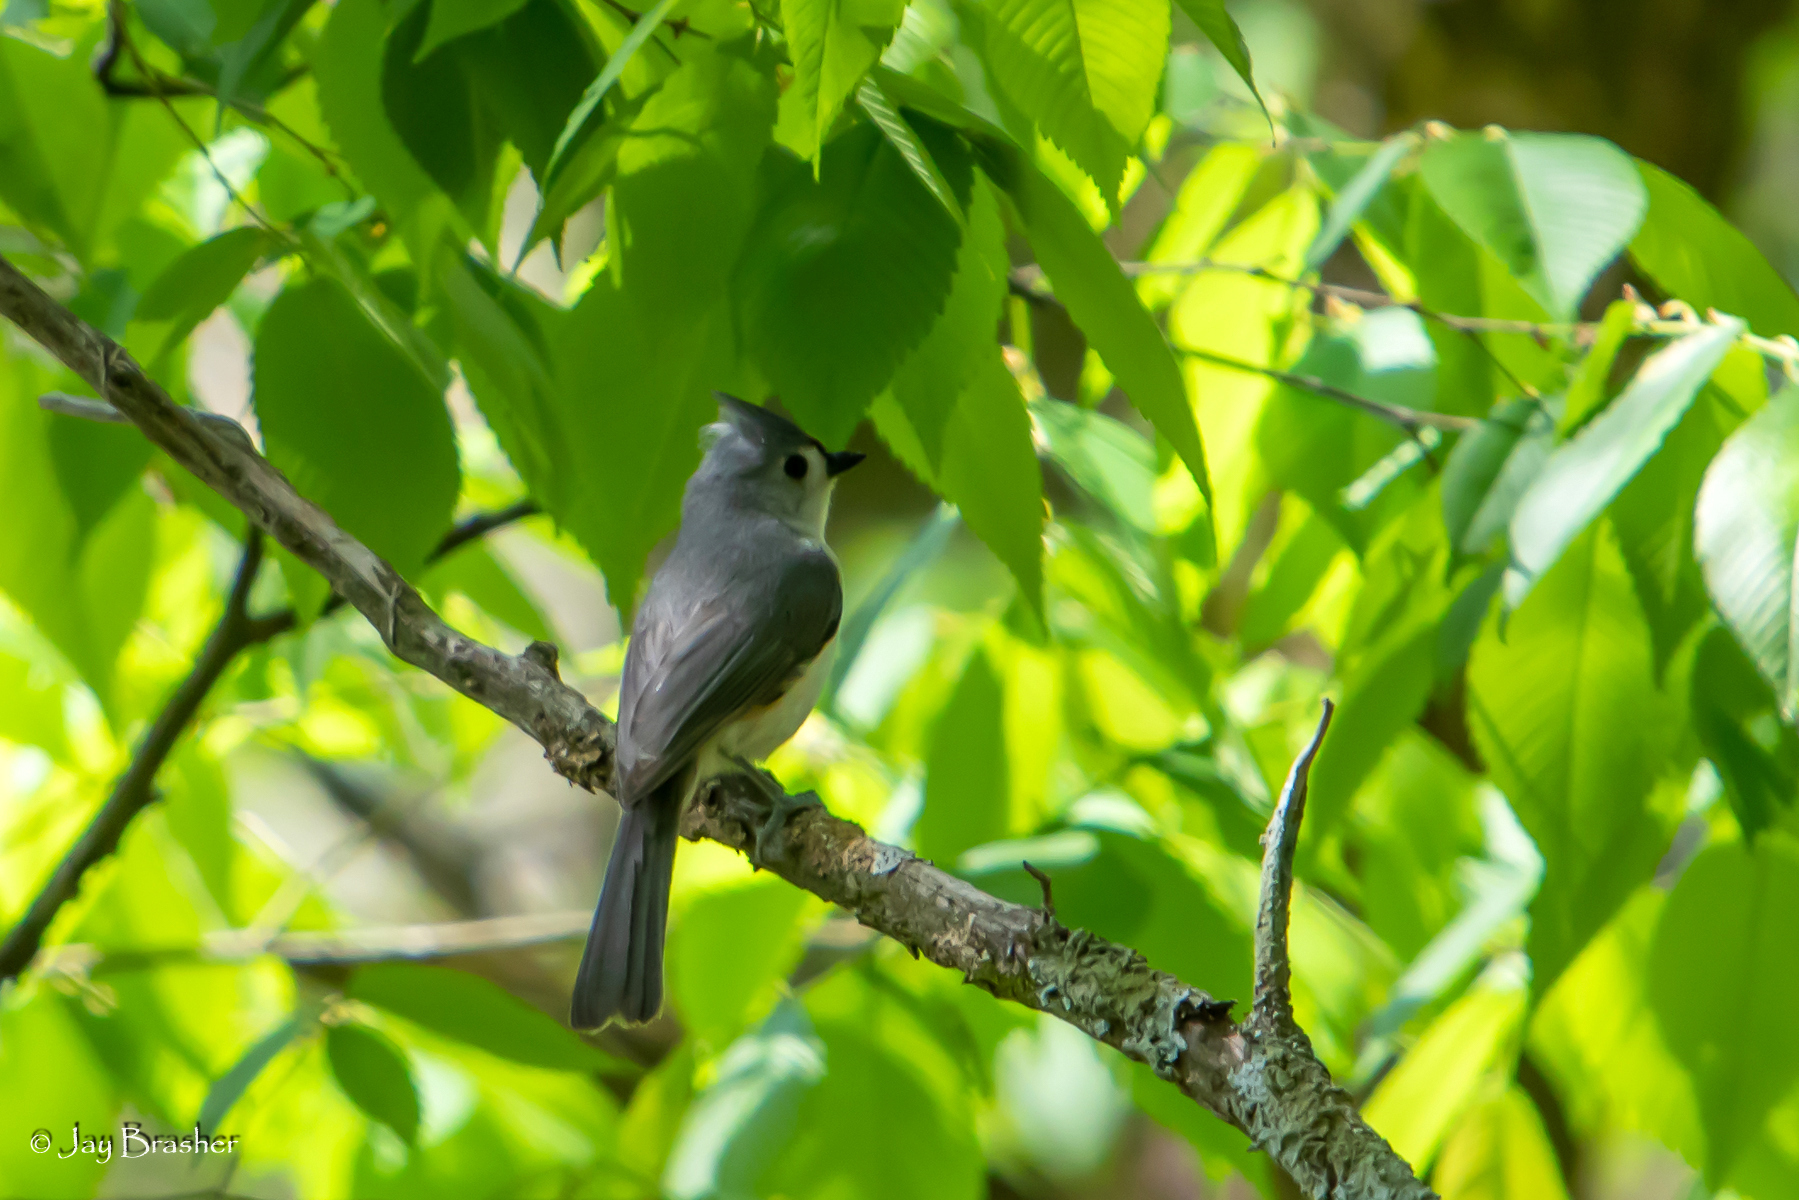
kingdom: Animalia
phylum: Chordata
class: Aves
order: Passeriformes
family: Paridae
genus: Baeolophus
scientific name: Baeolophus bicolor
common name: Tufted titmouse
